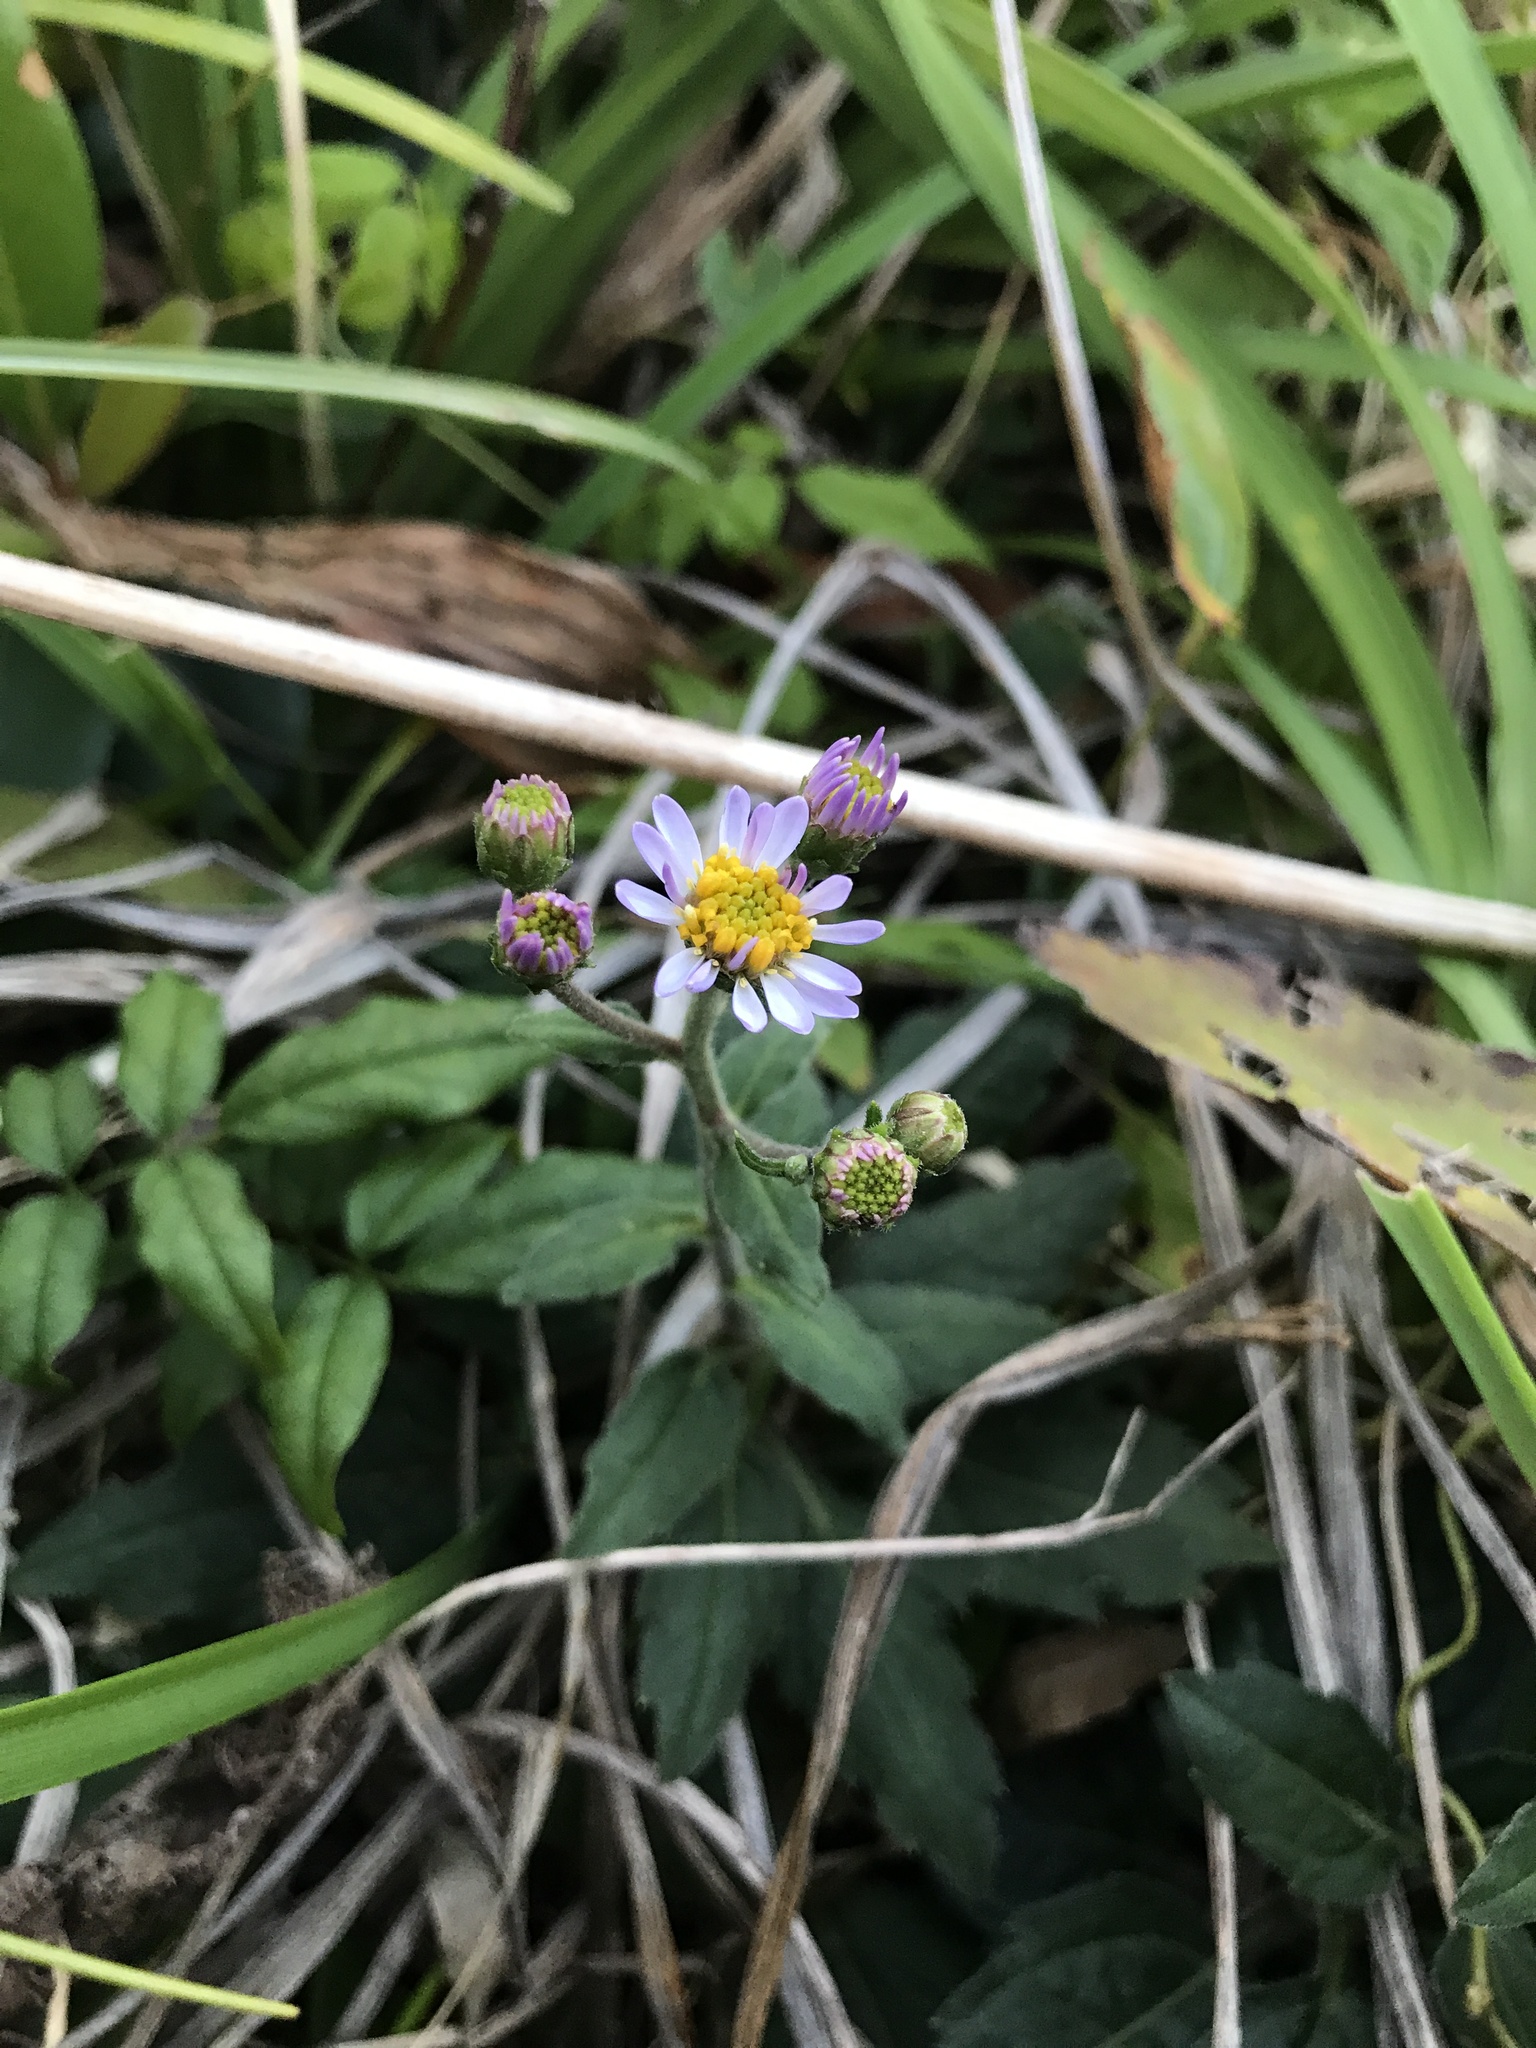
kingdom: Plantae
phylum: Tracheophyta
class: Magnoliopsida
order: Asterales
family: Asteraceae
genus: Aster
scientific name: Aster koshikiensis
